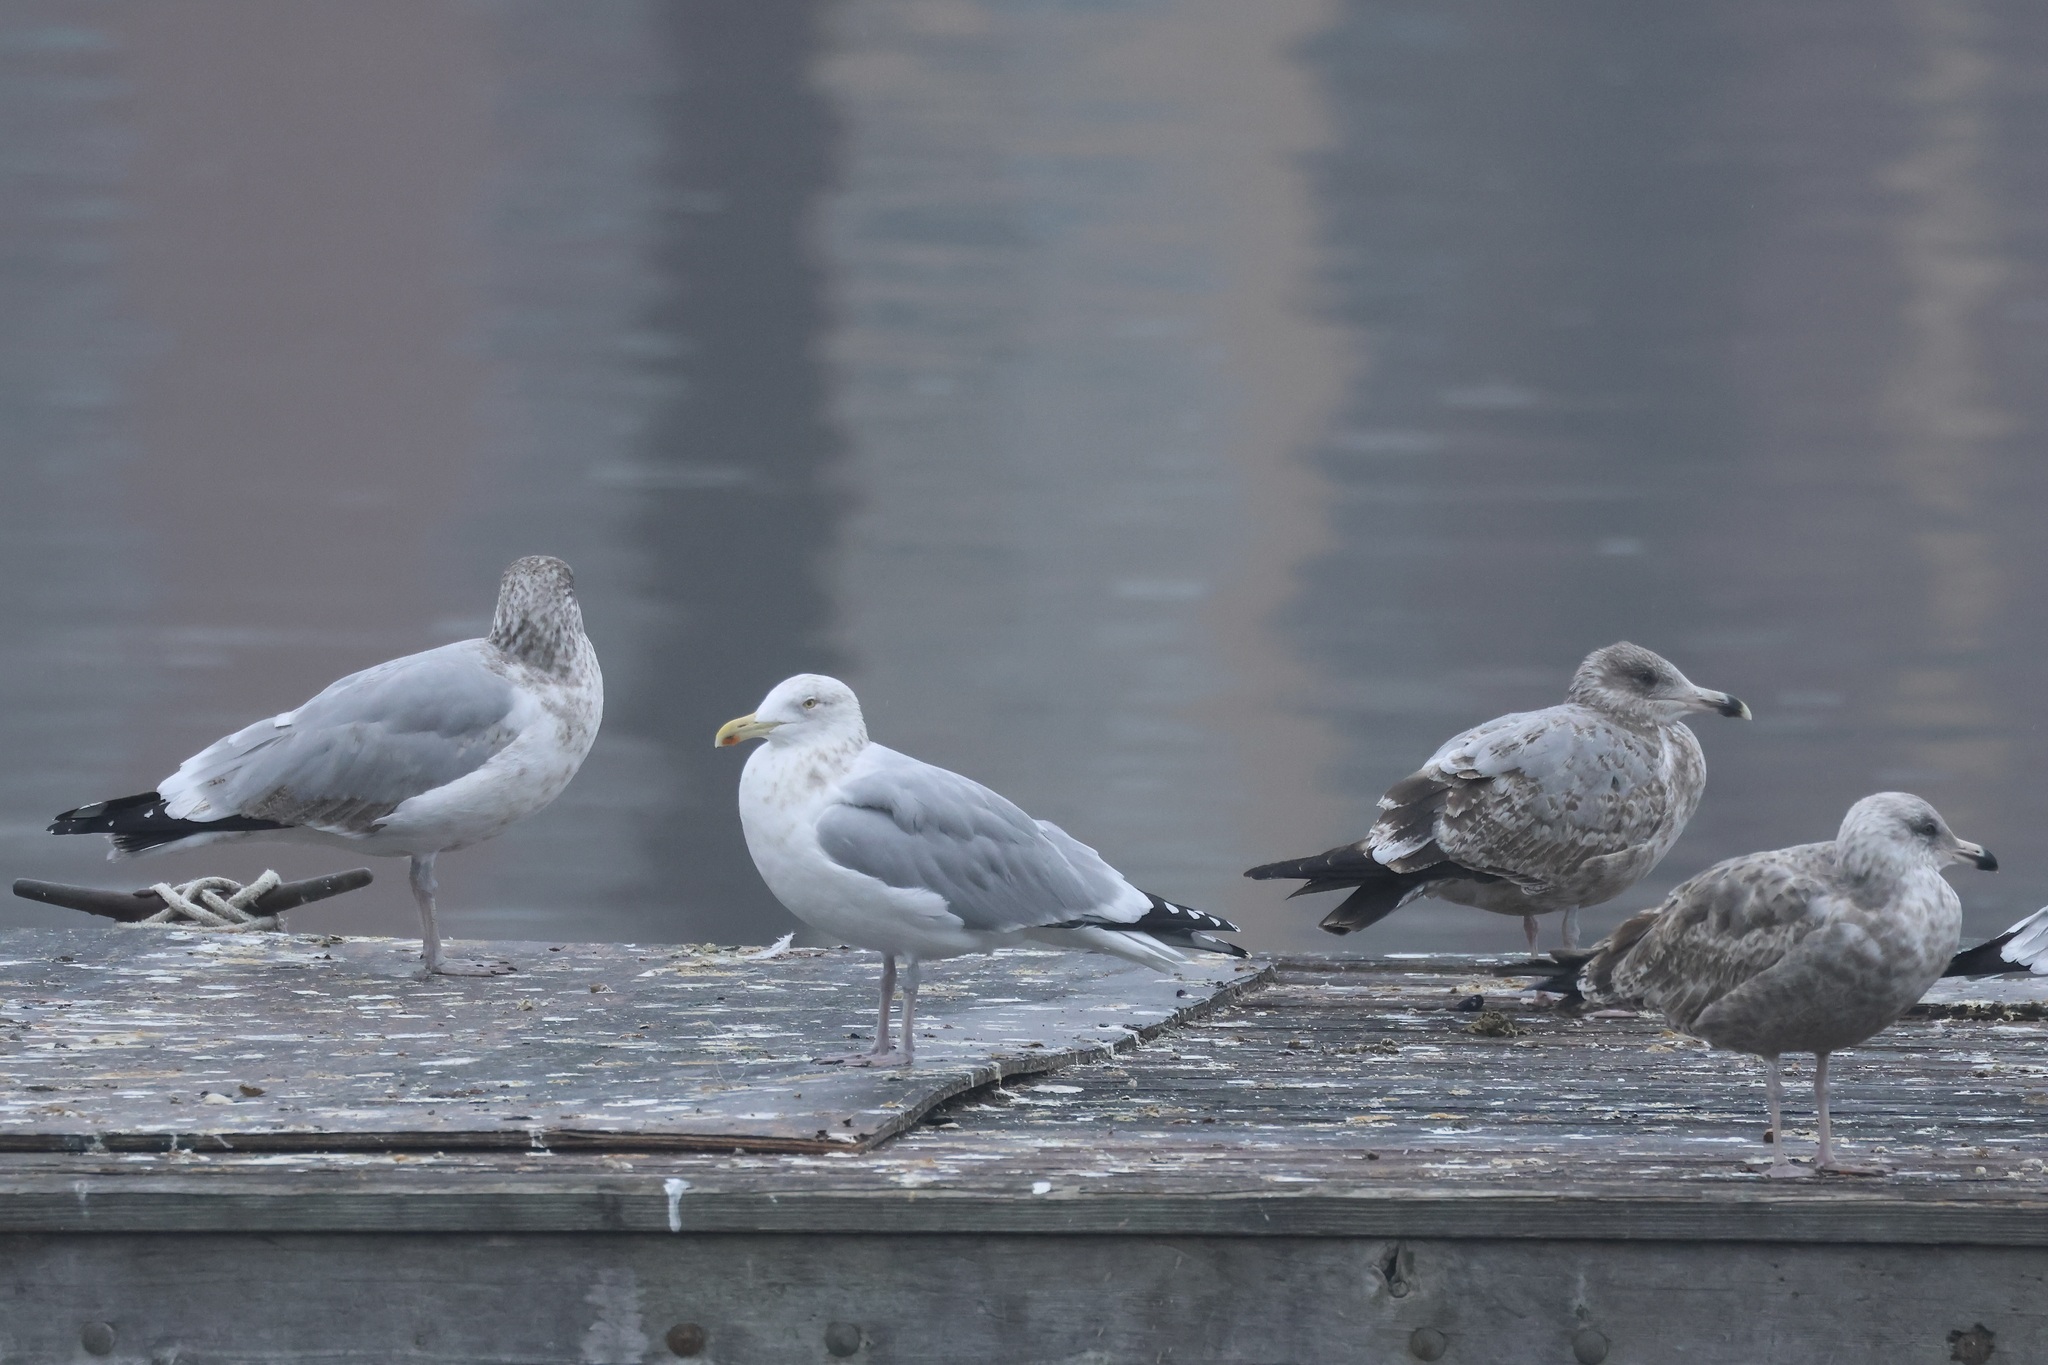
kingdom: Animalia
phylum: Chordata
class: Aves
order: Charadriiformes
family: Laridae
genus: Larus
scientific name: Larus argentatus
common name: Herring gull
